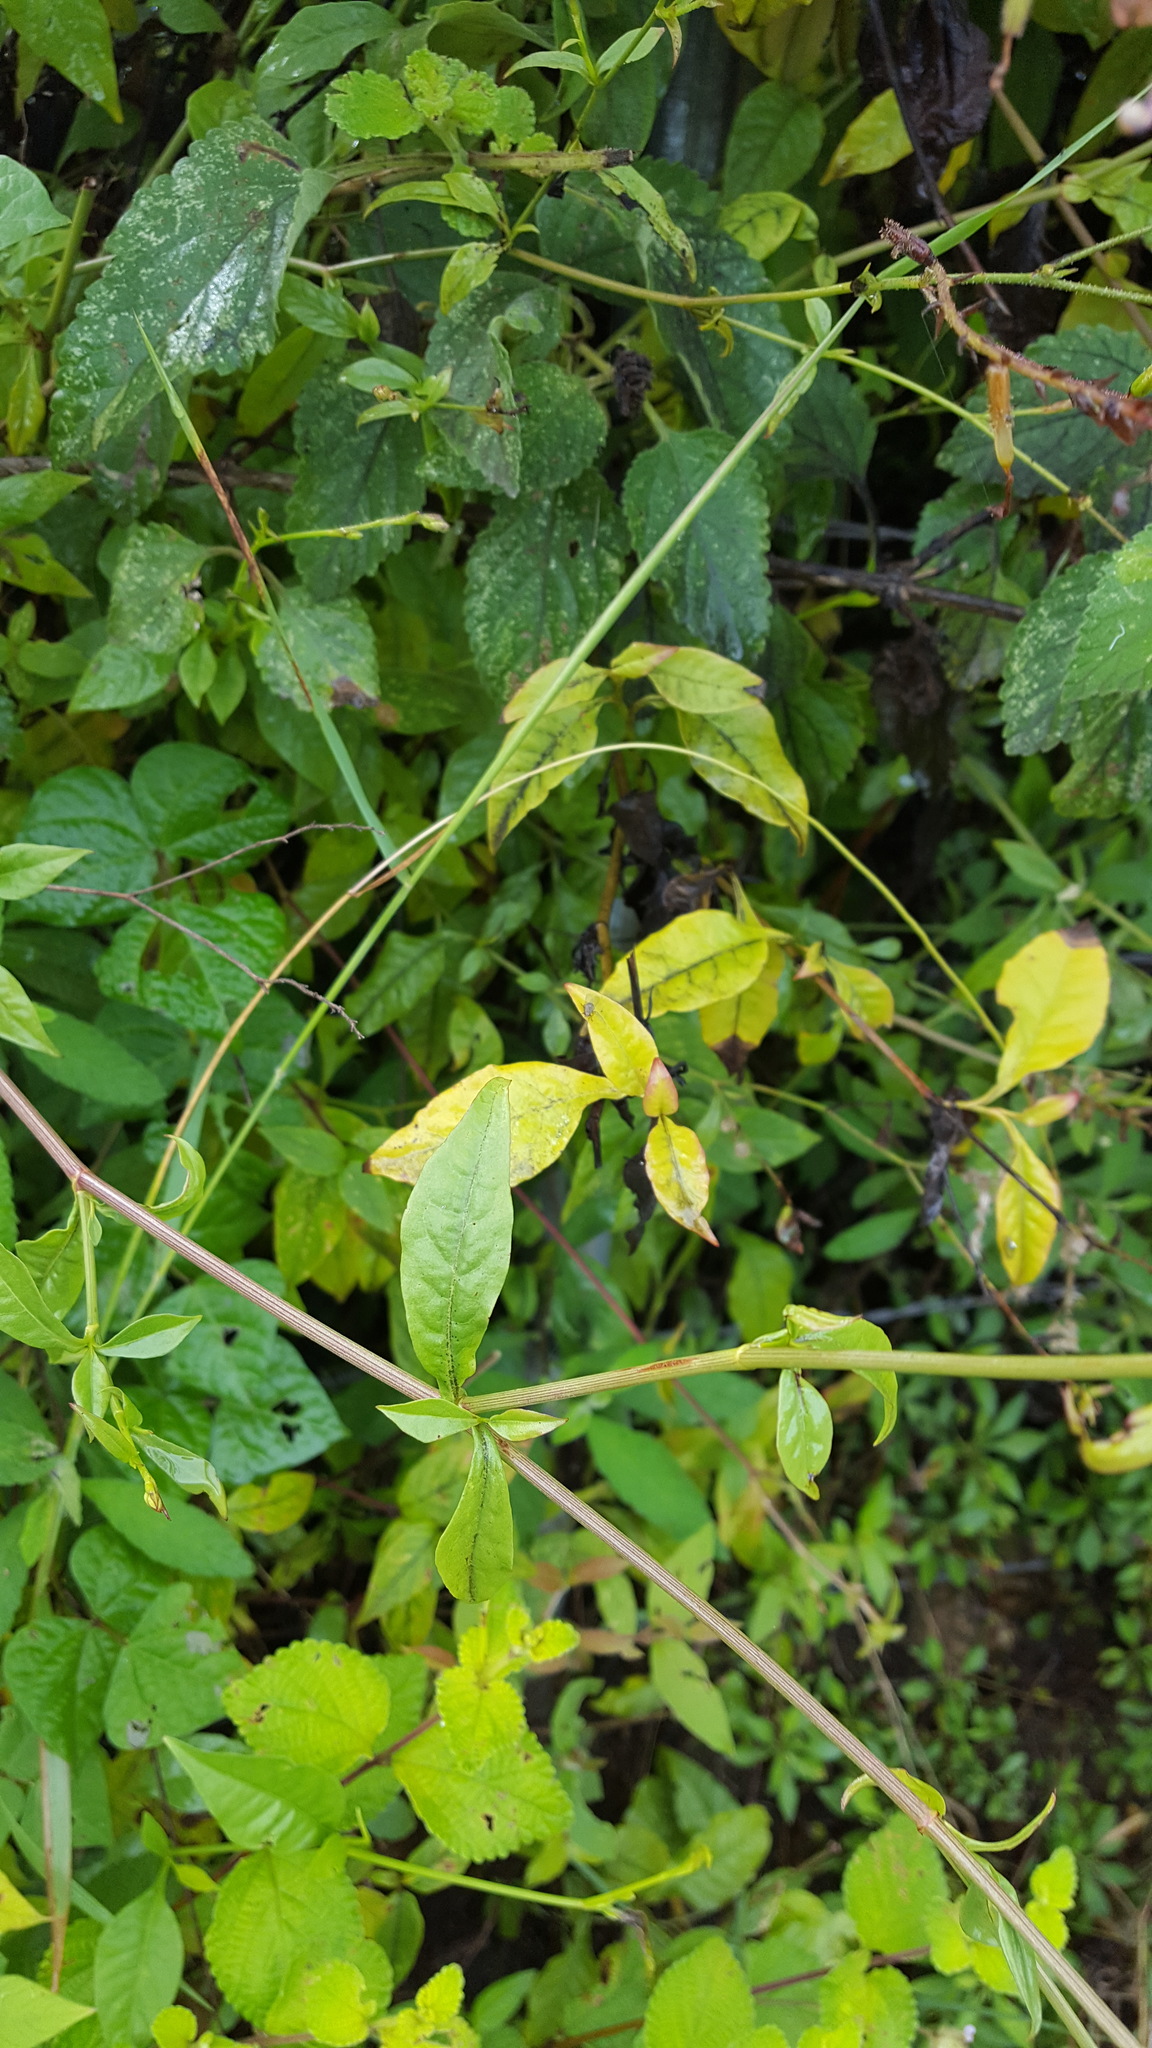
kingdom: Plantae
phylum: Tracheophyta
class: Magnoliopsida
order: Caryophyllales
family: Plumbaginaceae
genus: Plumbago
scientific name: Plumbago pulchella
